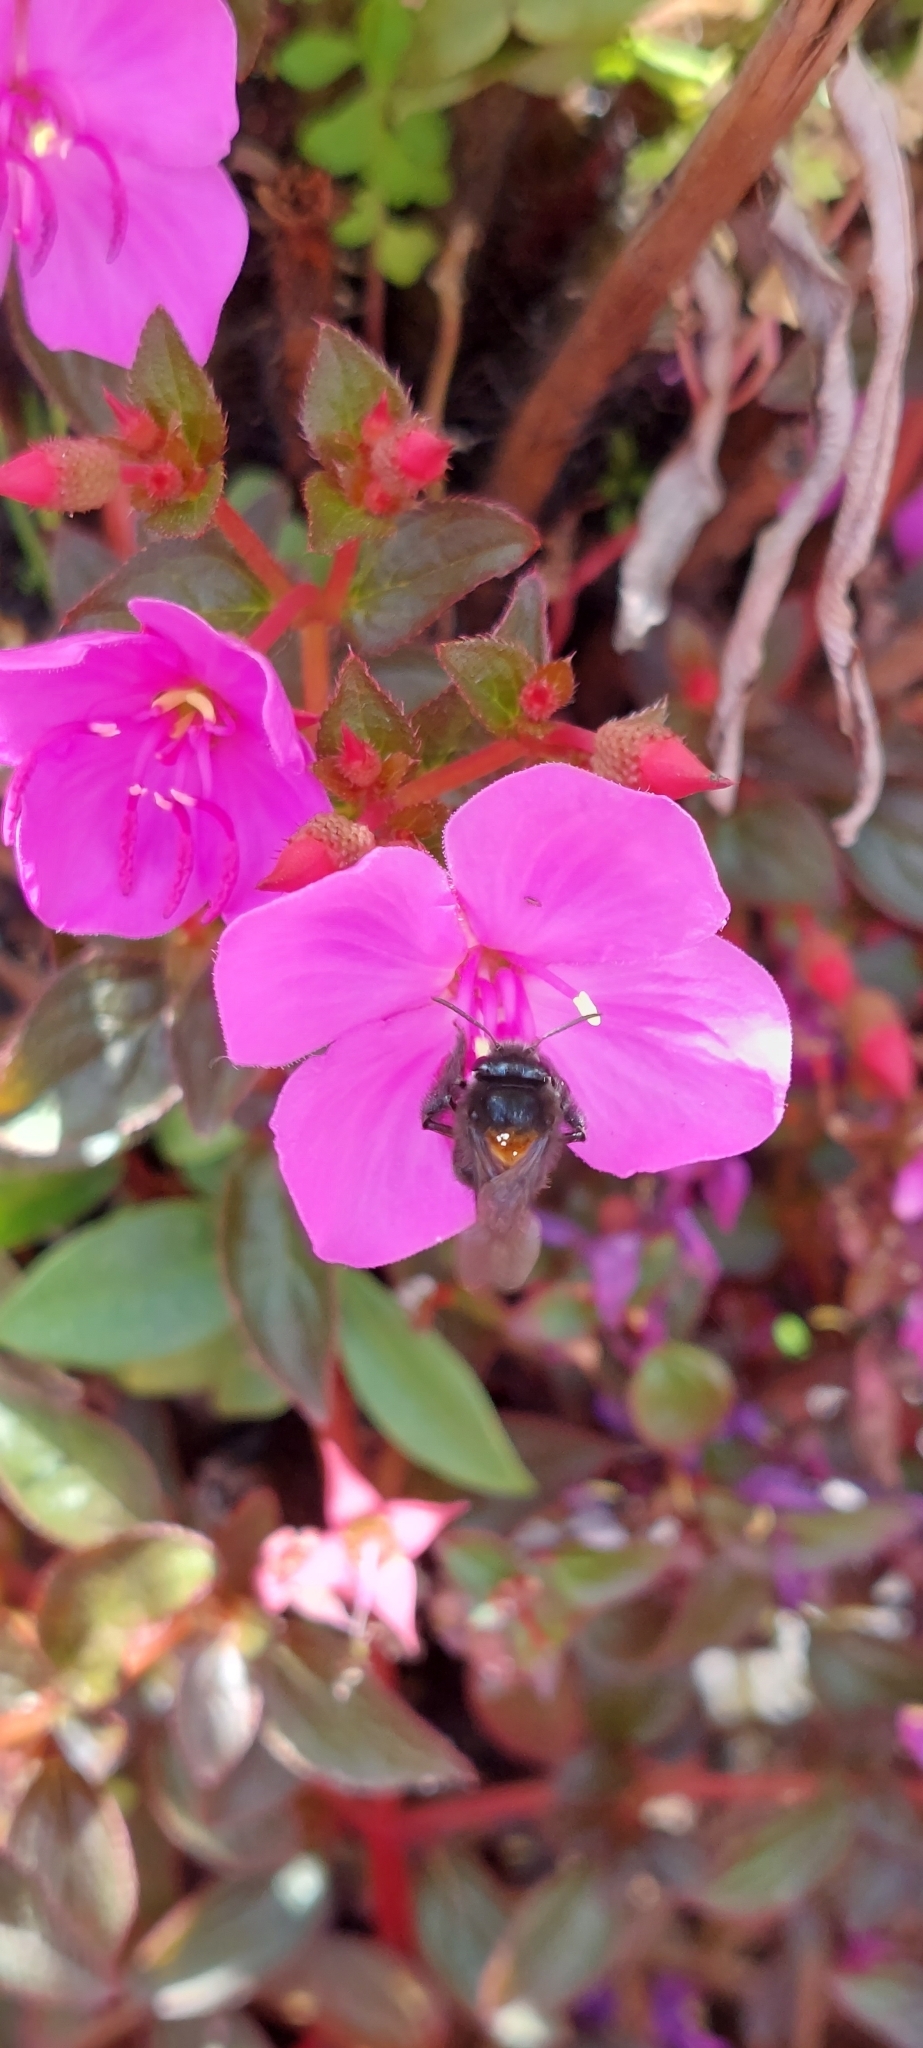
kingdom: Animalia
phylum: Arthropoda
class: Insecta
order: Hymenoptera
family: Apidae
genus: Thygater
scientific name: Thygater aethiops
